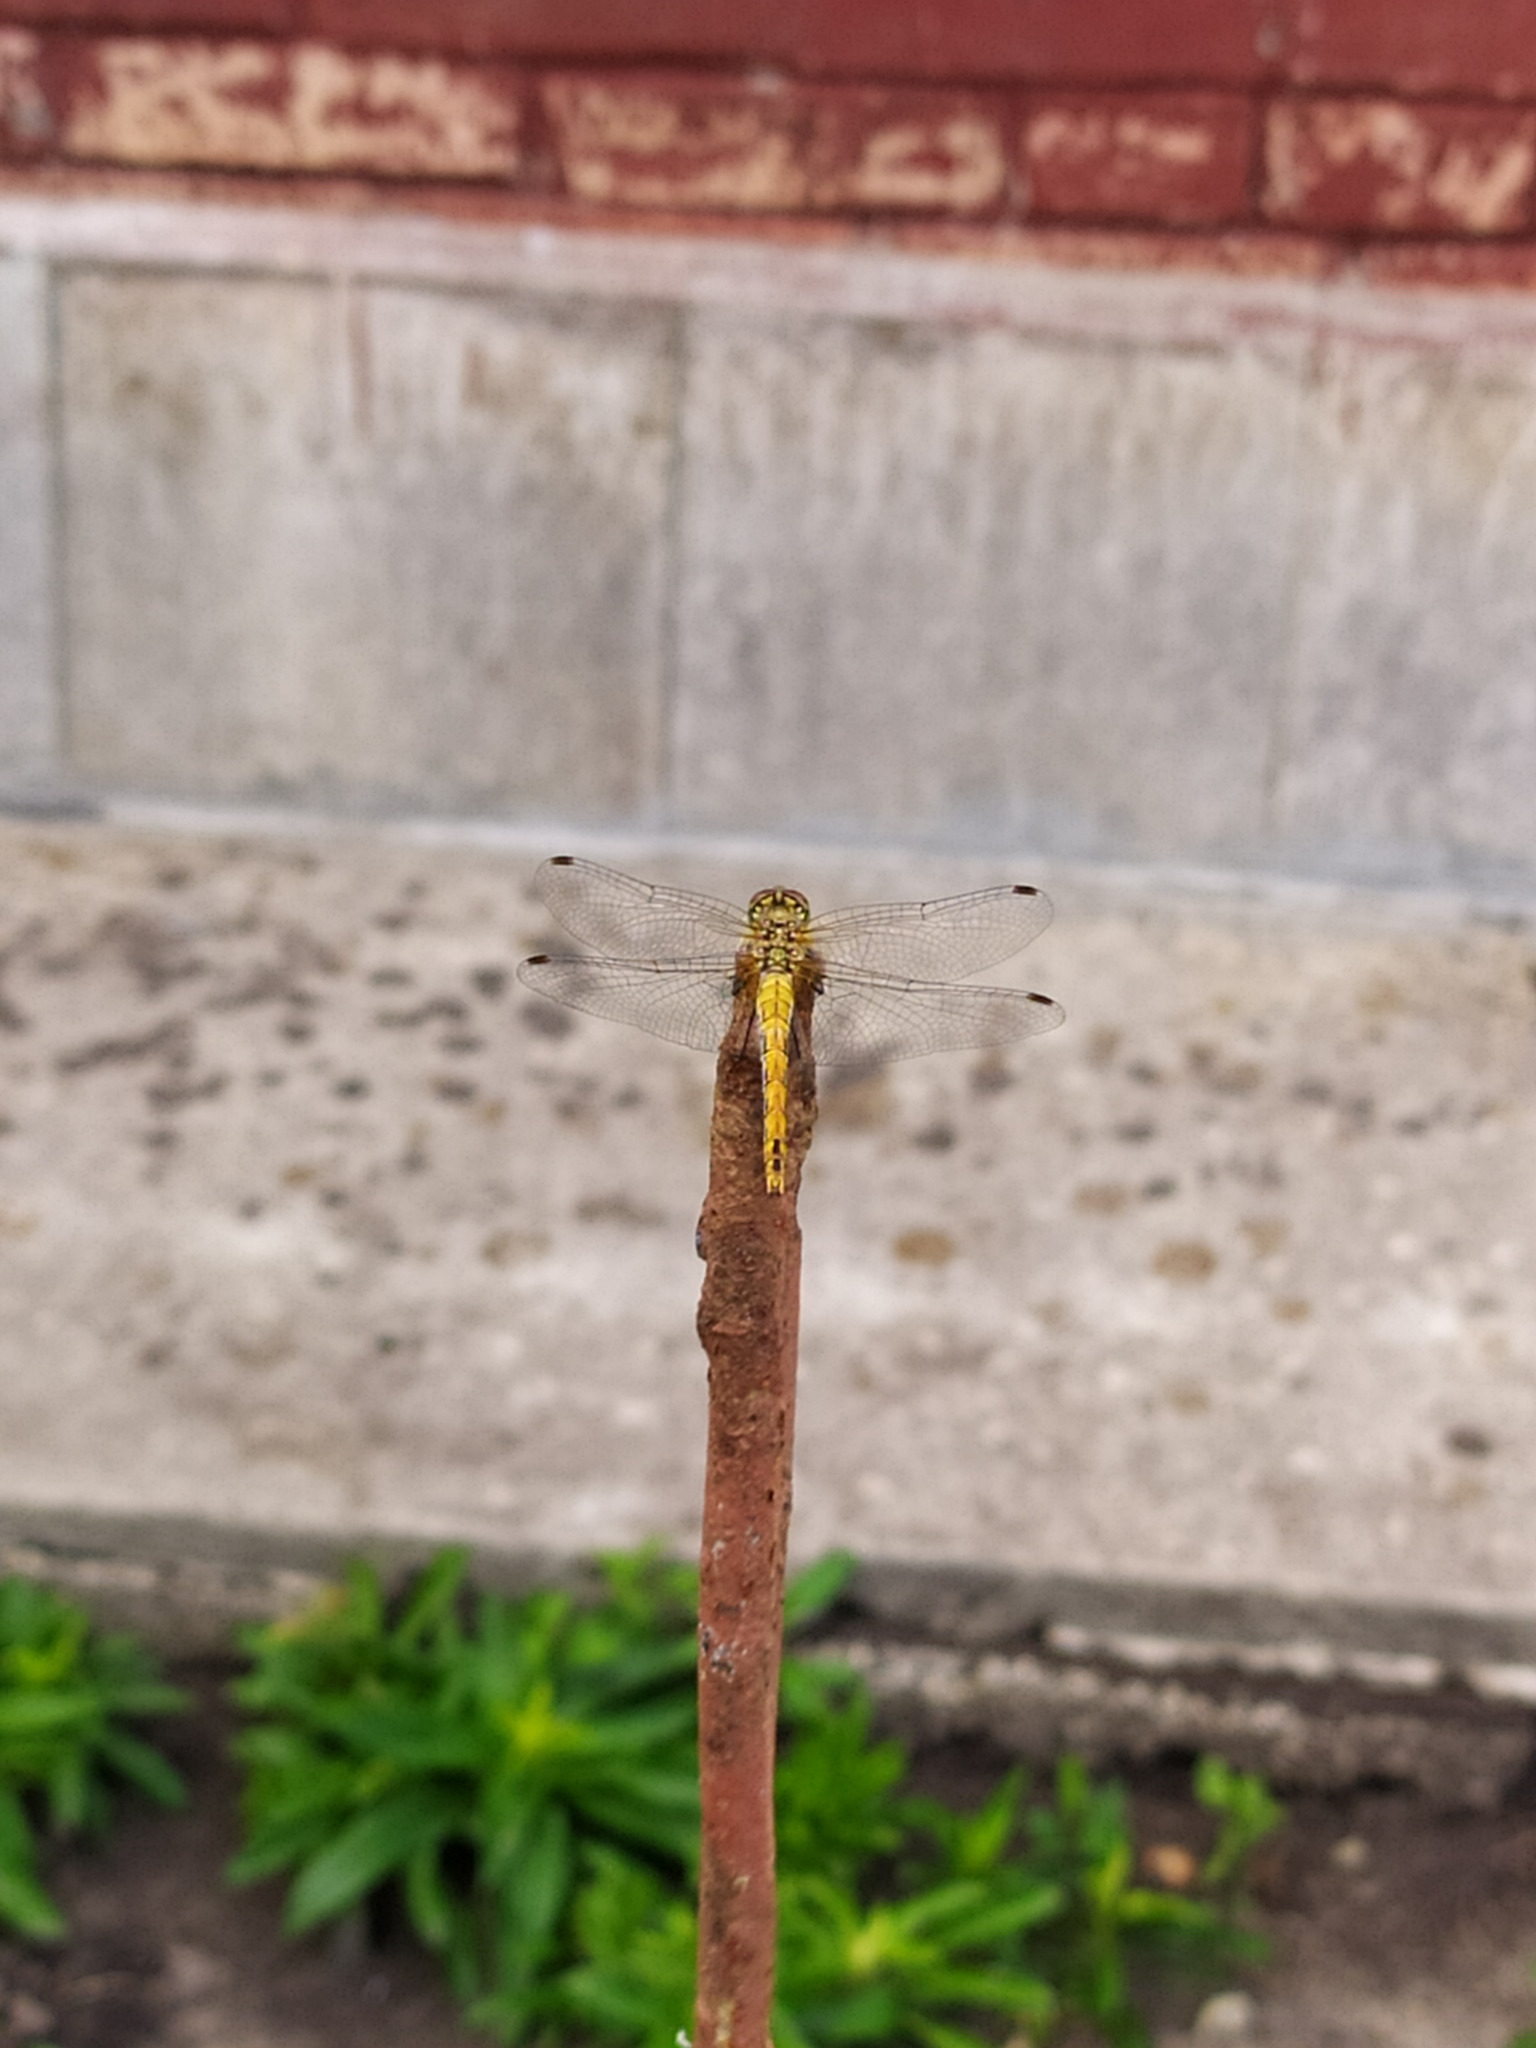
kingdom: Animalia
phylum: Arthropoda
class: Insecta
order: Odonata
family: Libellulidae
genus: Sympetrum
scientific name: Sympetrum sanguineum
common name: Ruddy darter
